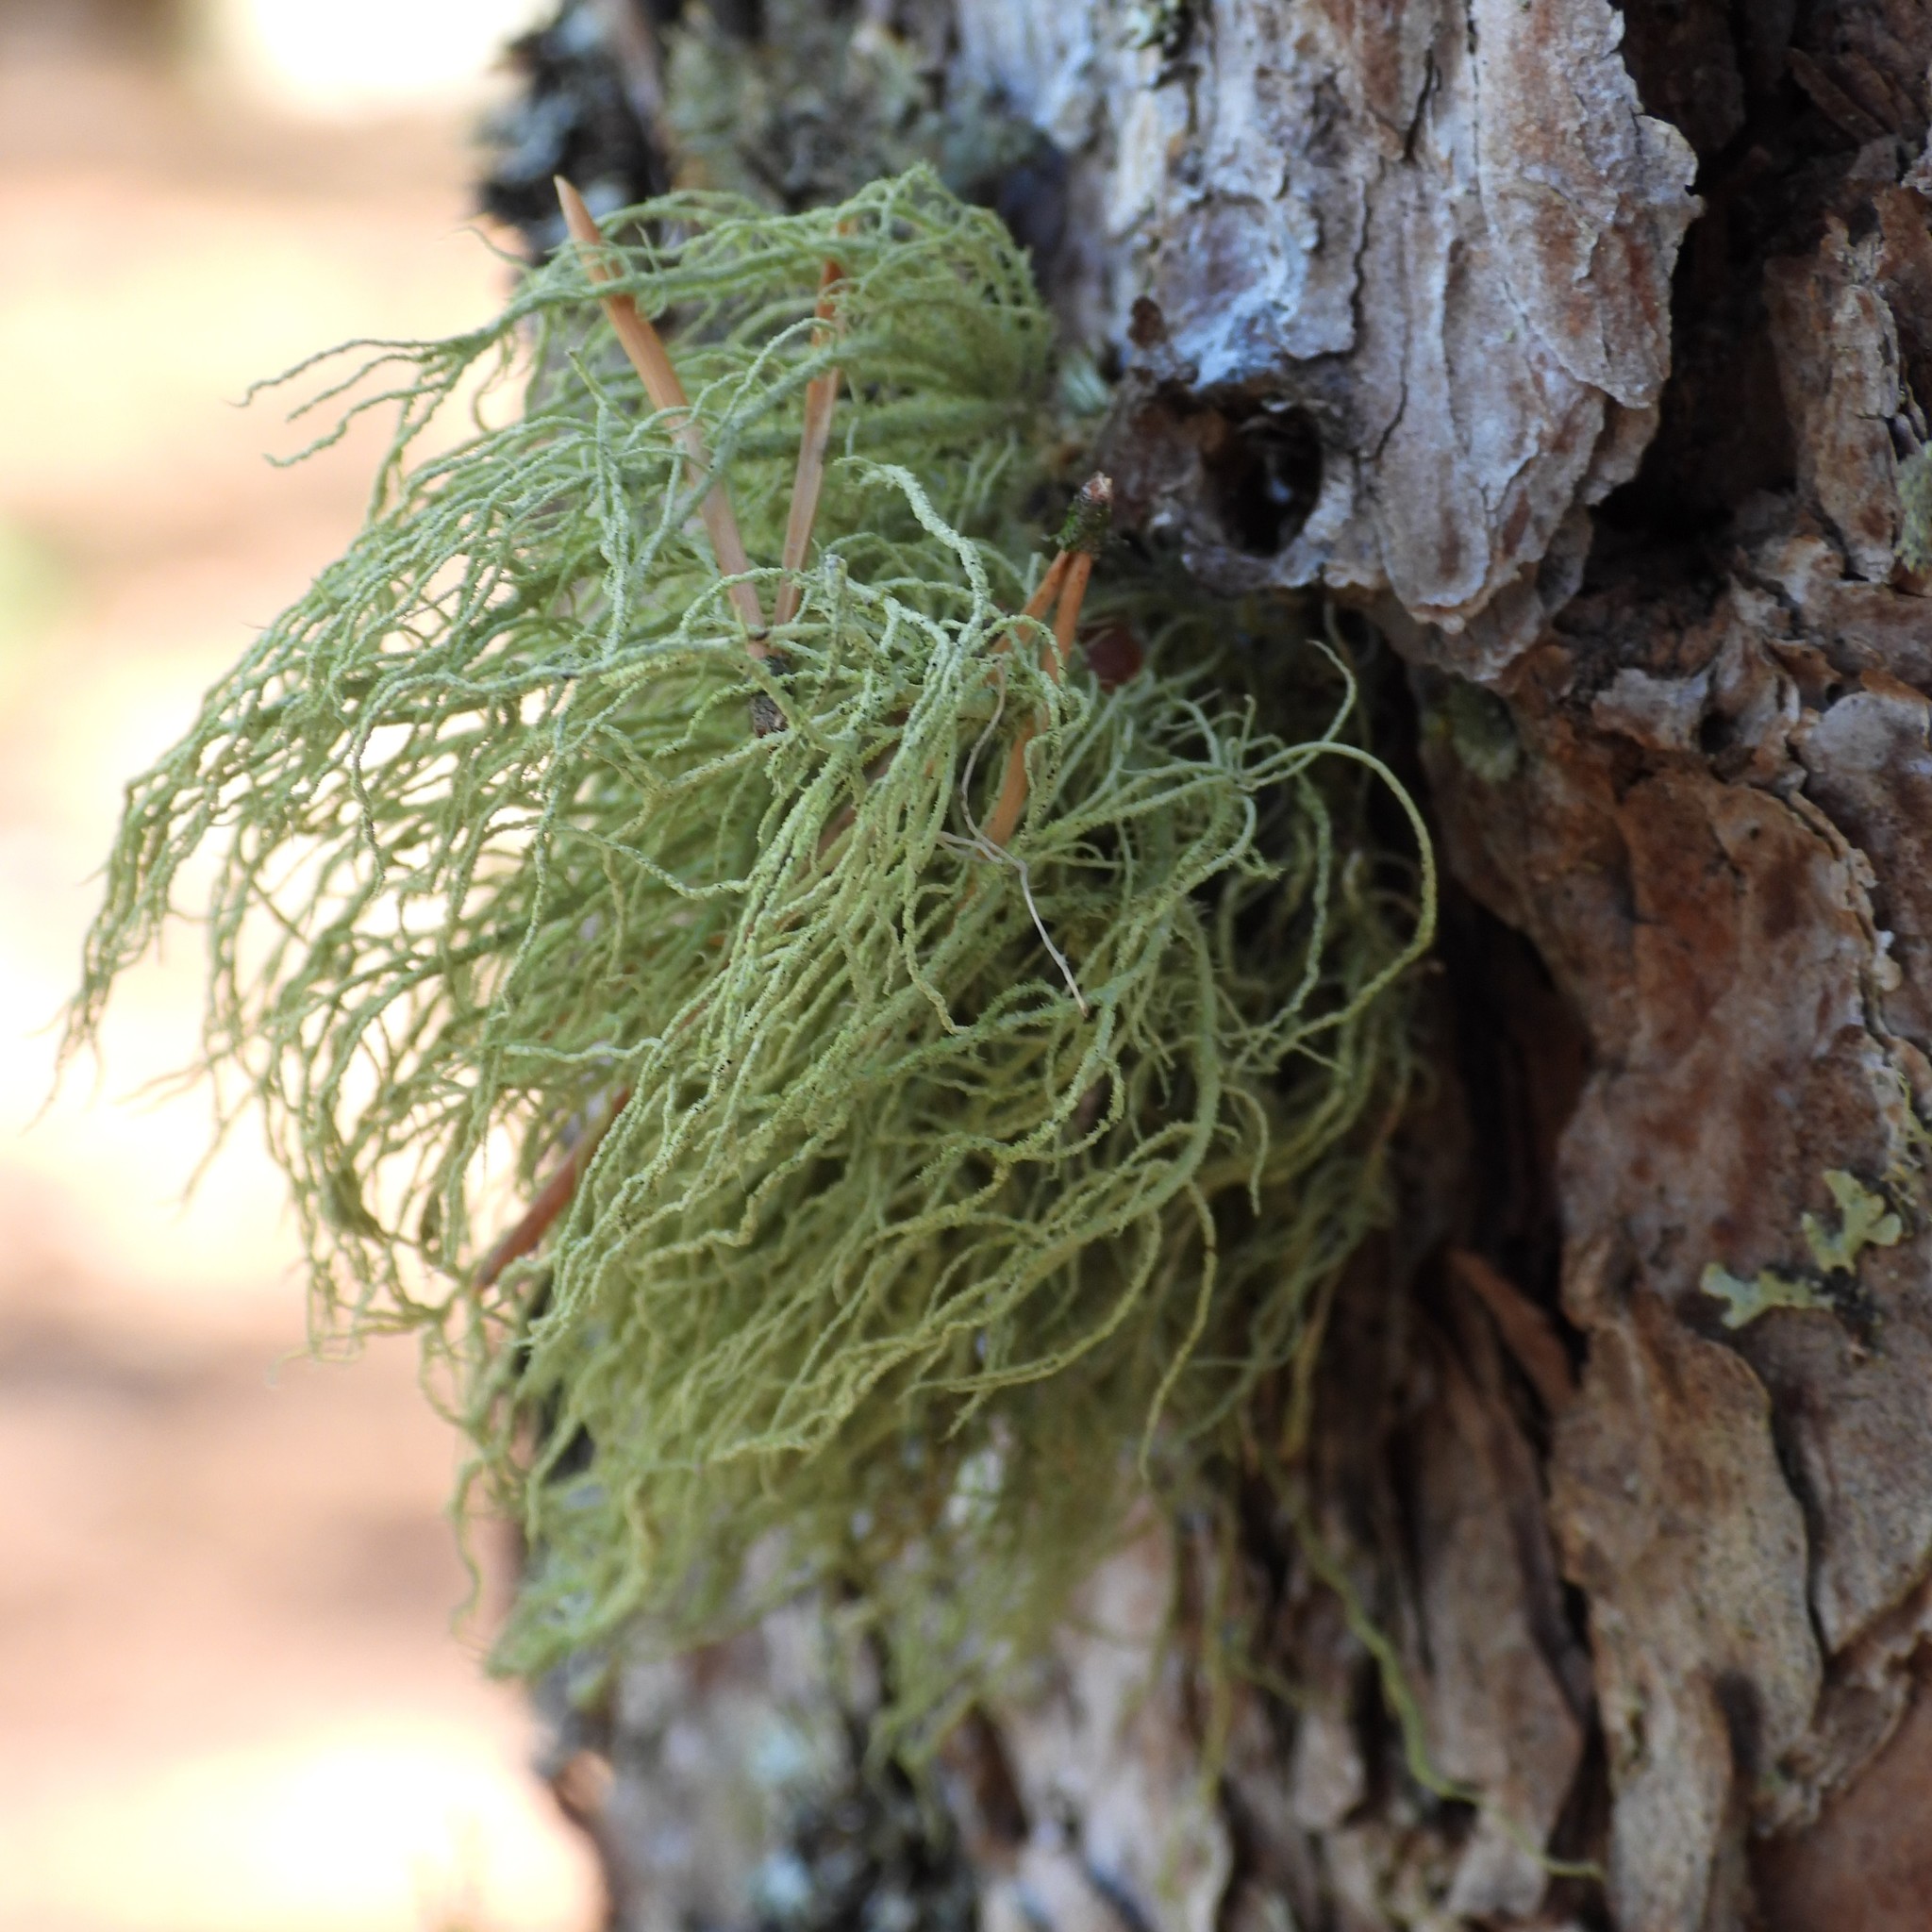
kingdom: Fungi
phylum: Ascomycota
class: Lecanoromycetes
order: Lecanorales
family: Parmeliaceae
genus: Usnea
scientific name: Usnea hirta
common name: Bristly beard lichen
